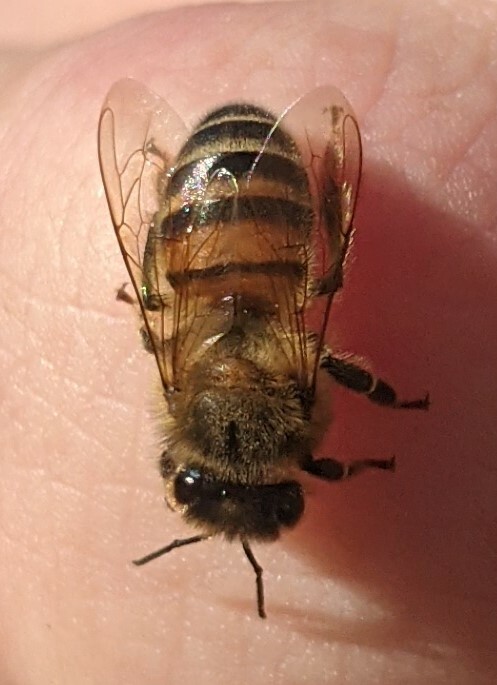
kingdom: Animalia
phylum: Arthropoda
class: Insecta
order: Hymenoptera
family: Apidae
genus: Apis
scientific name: Apis mellifera
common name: Honey bee
